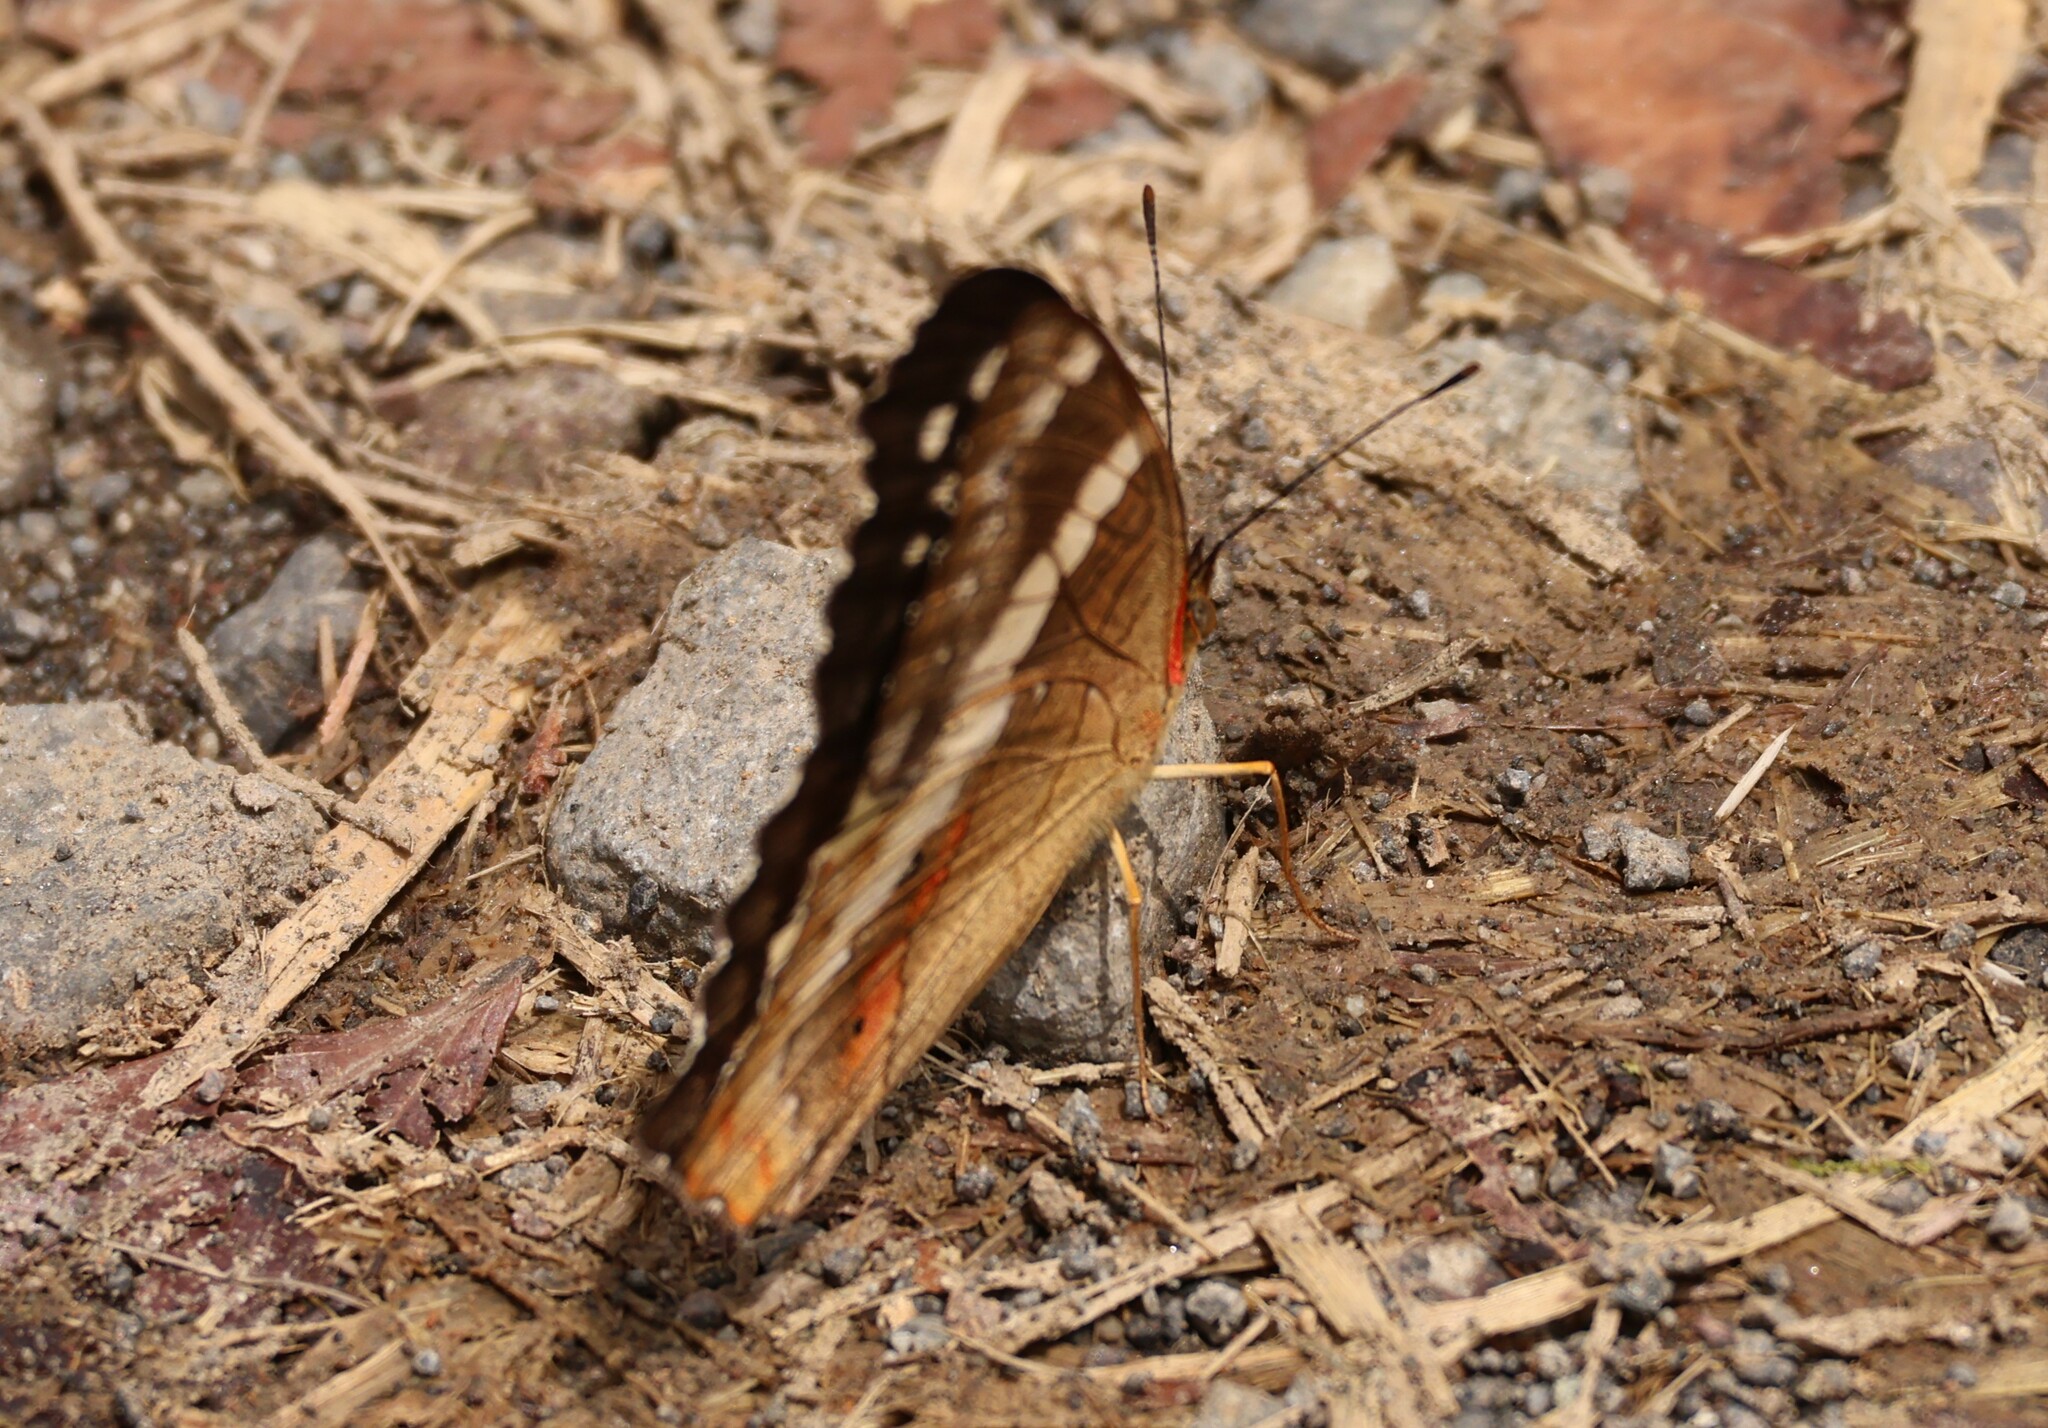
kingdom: Animalia
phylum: Arthropoda
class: Insecta
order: Lepidoptera
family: Nymphalidae
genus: Anartia
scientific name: Anartia fatima
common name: Banded peacock
